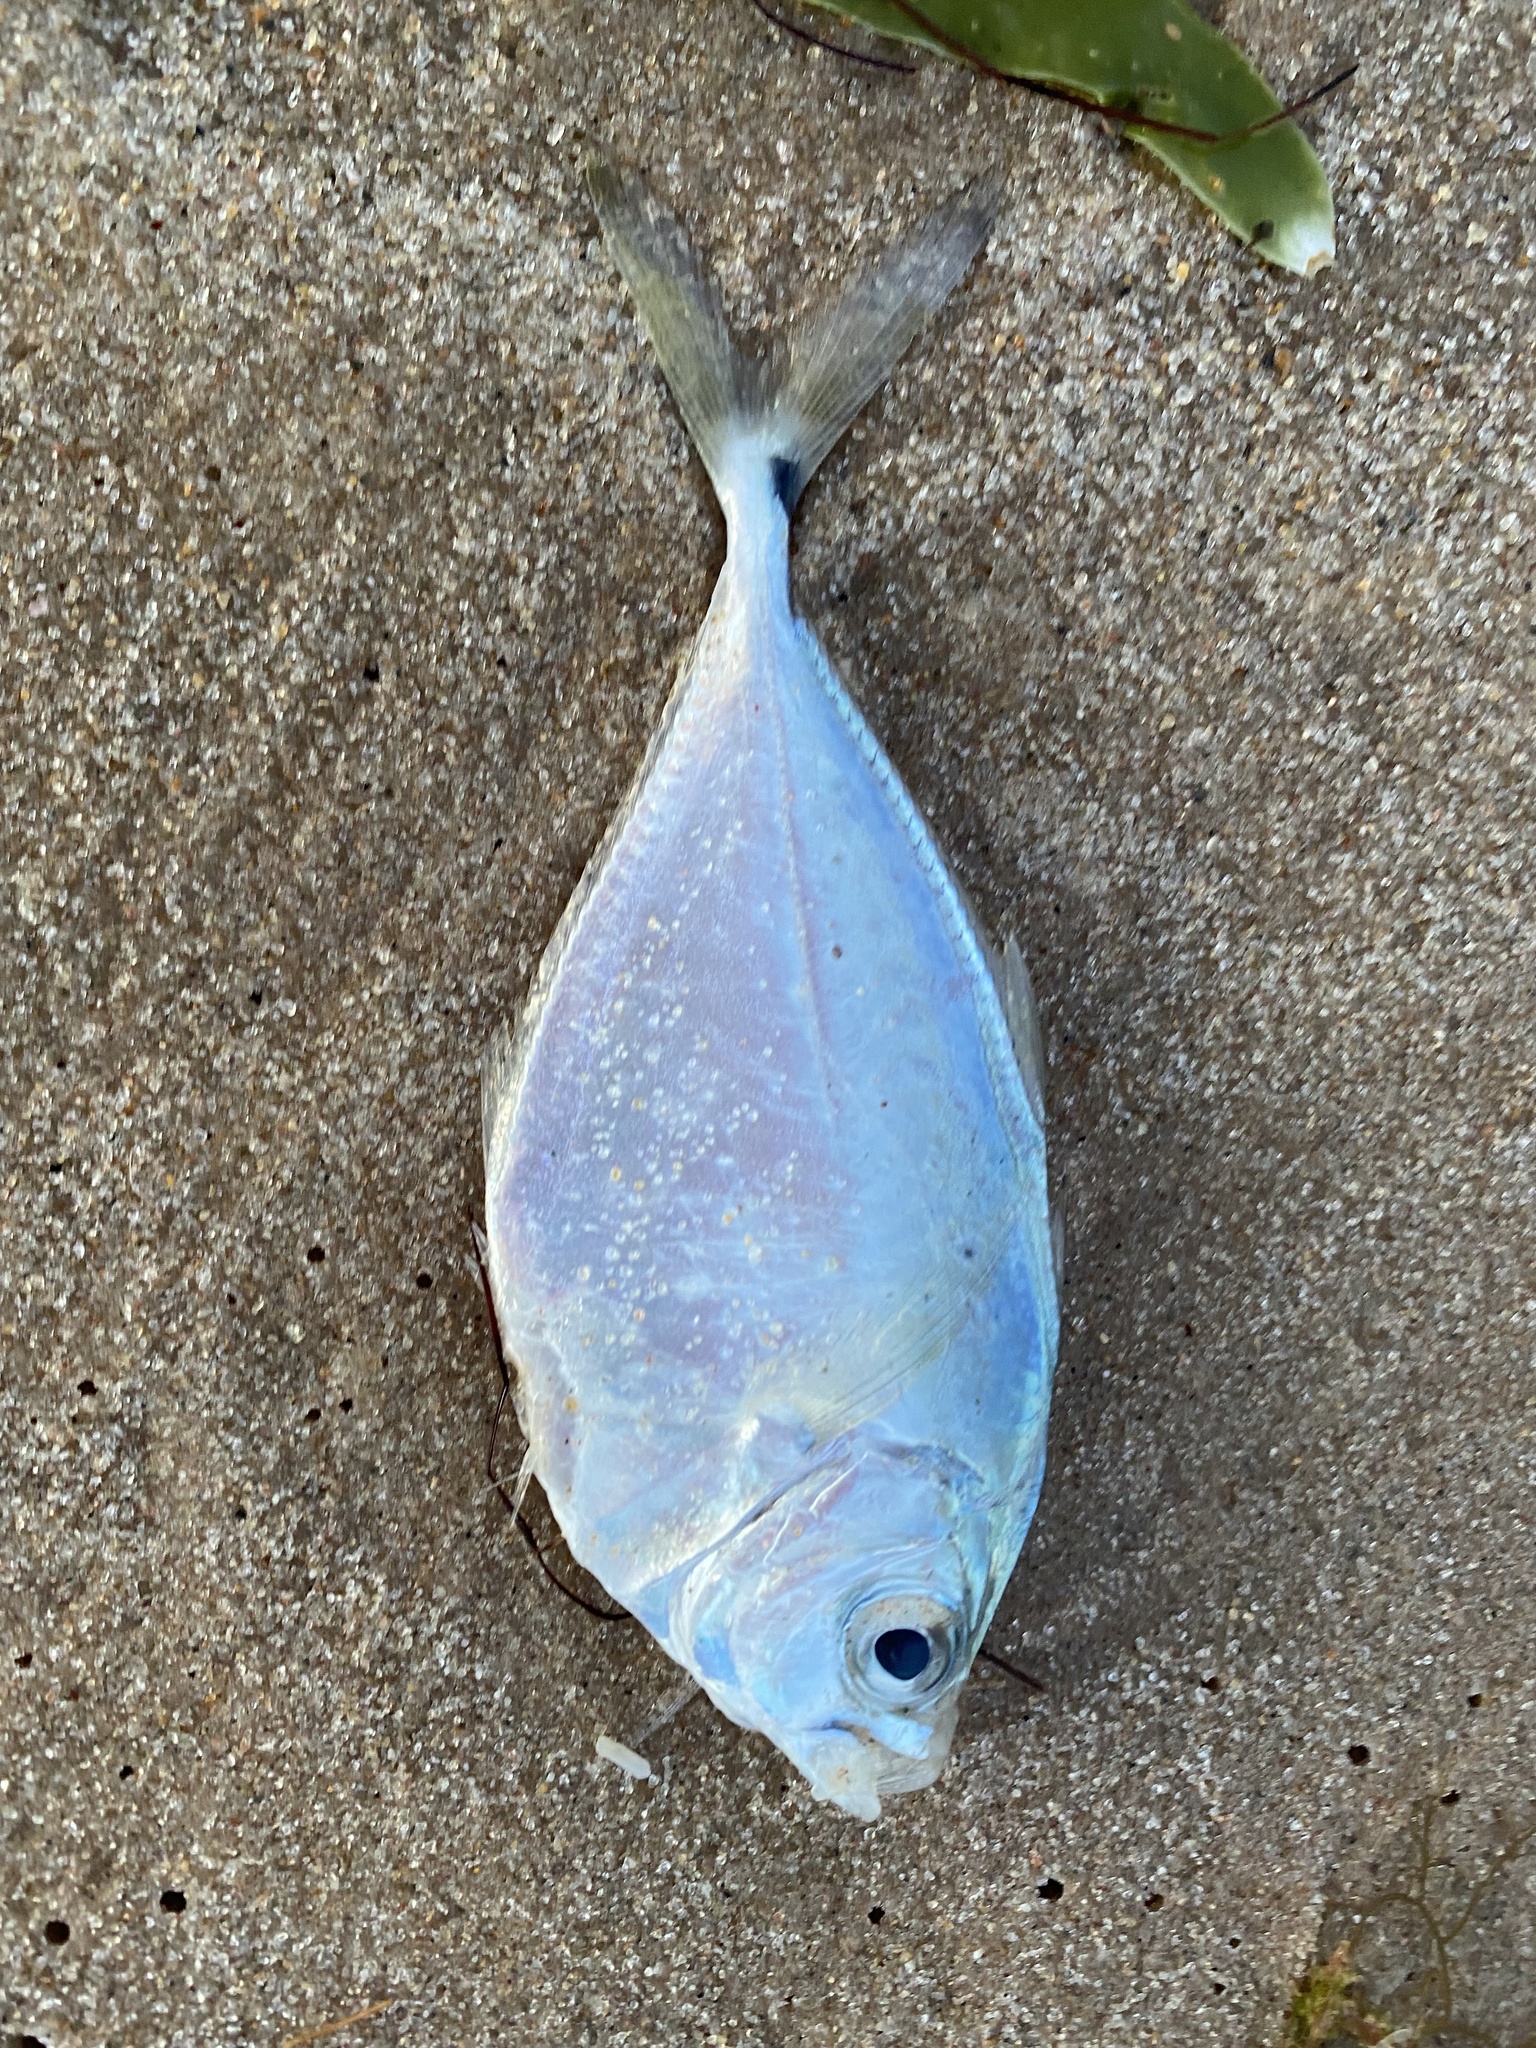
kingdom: Animalia
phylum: Chordata
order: Perciformes
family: Carangidae
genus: Chloroscombrus
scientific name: Chloroscombrus chrysurus
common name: Bumper
